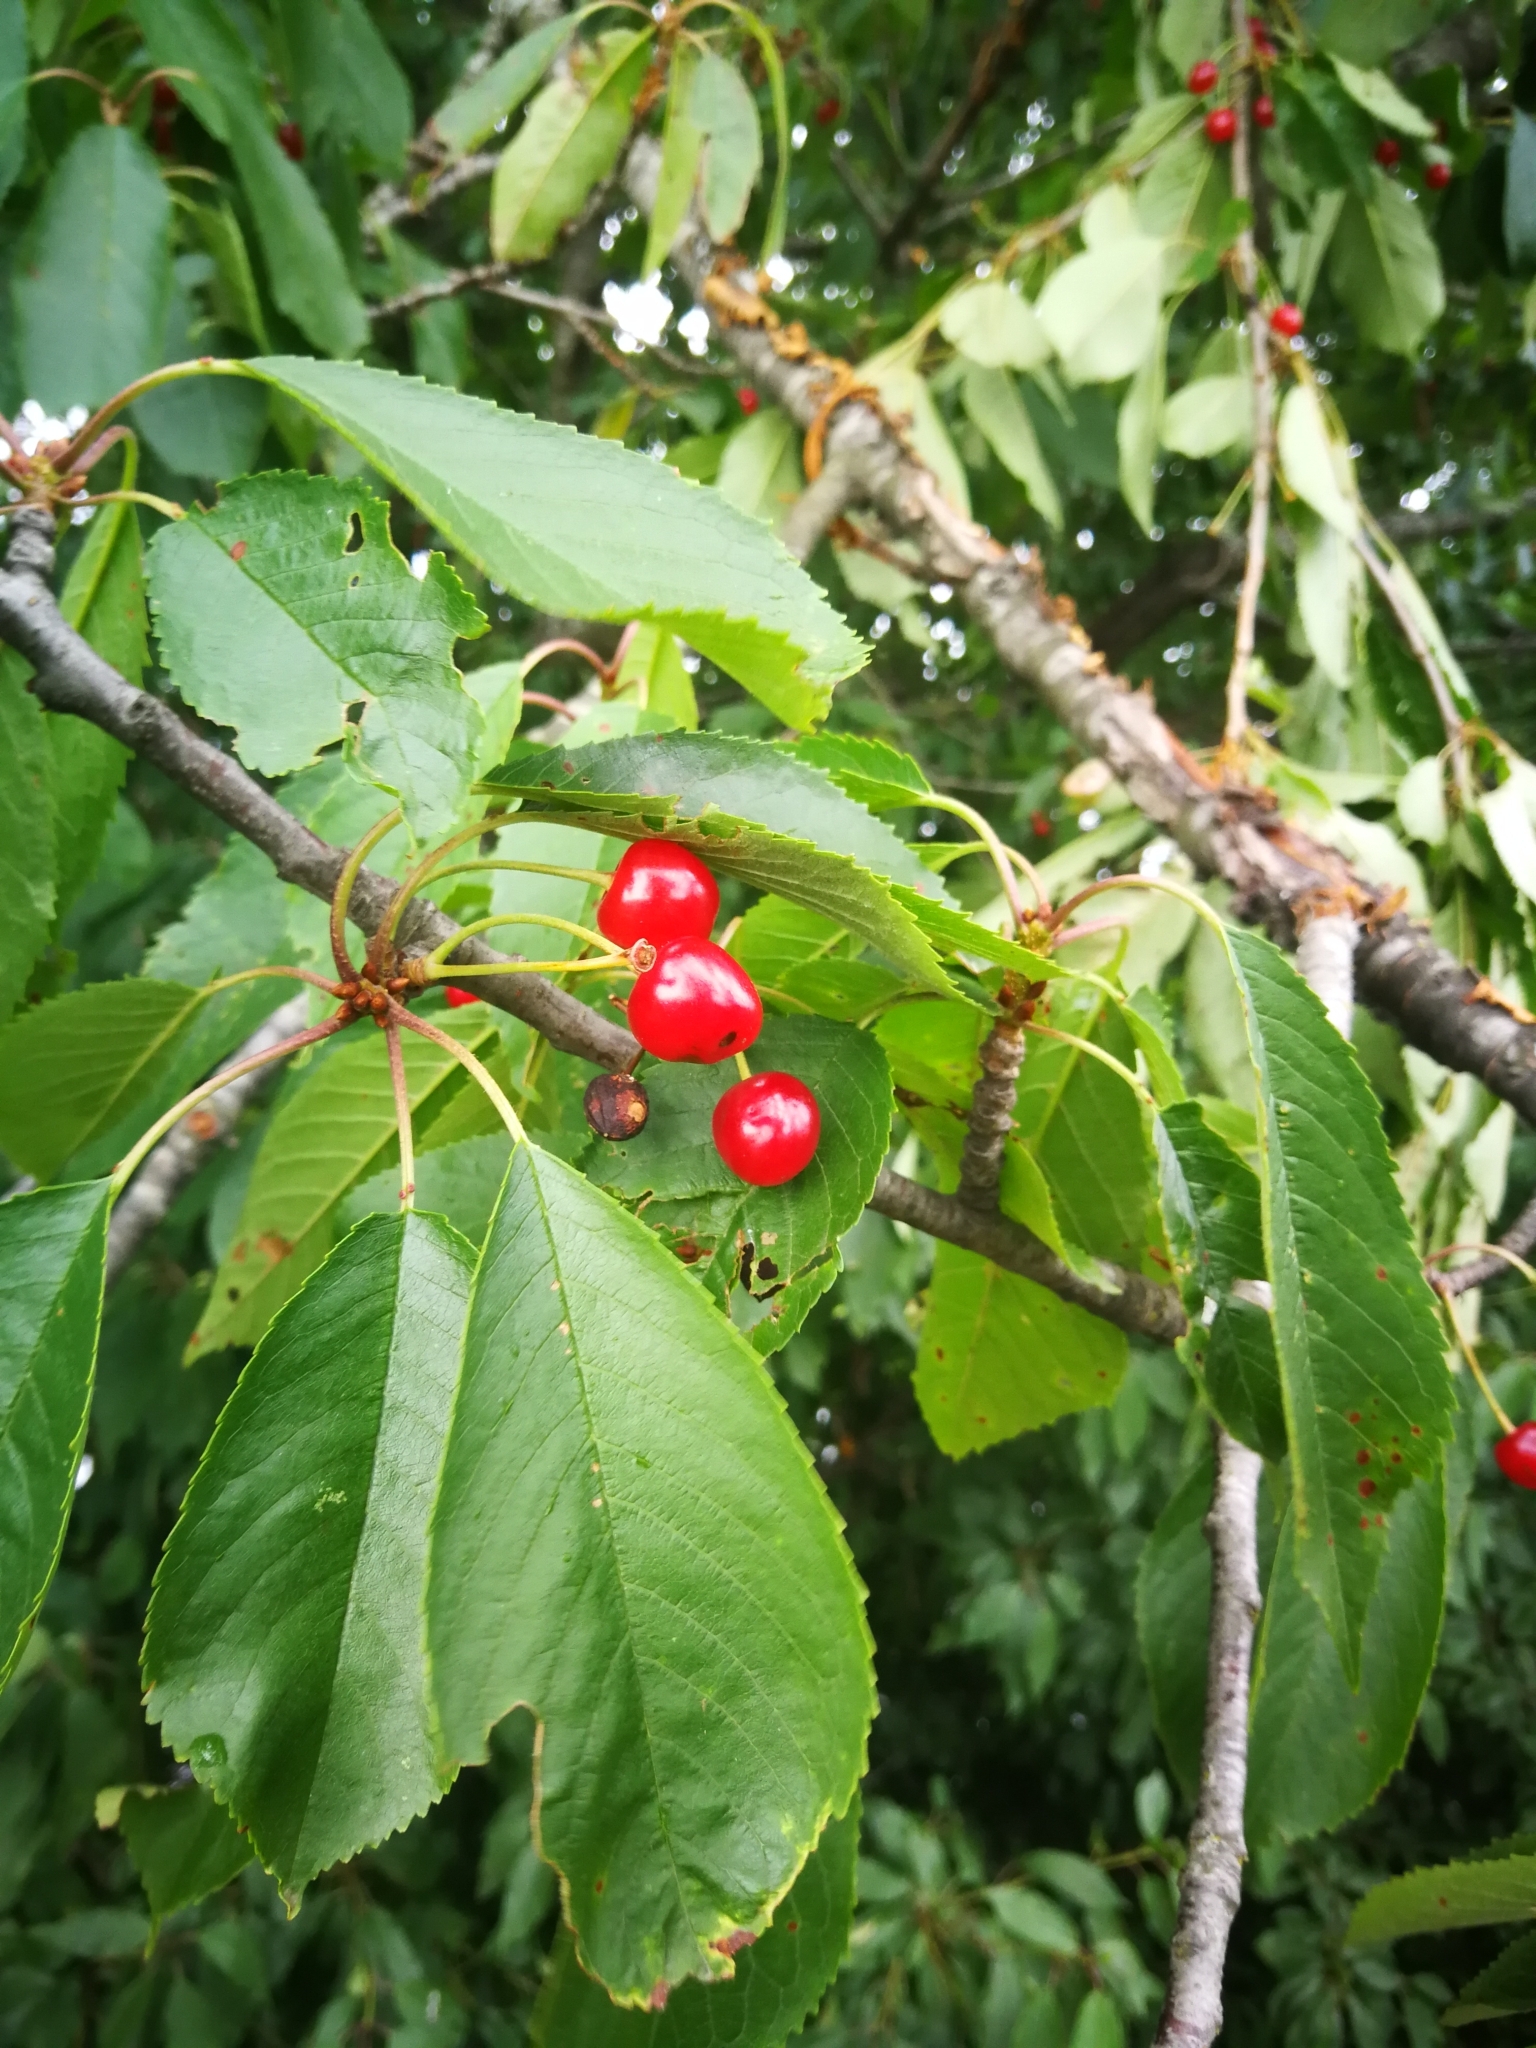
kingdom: Plantae
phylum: Tracheophyta
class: Magnoliopsida
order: Rosales
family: Rosaceae
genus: Prunus
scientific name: Prunus avium
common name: Sweet cherry
